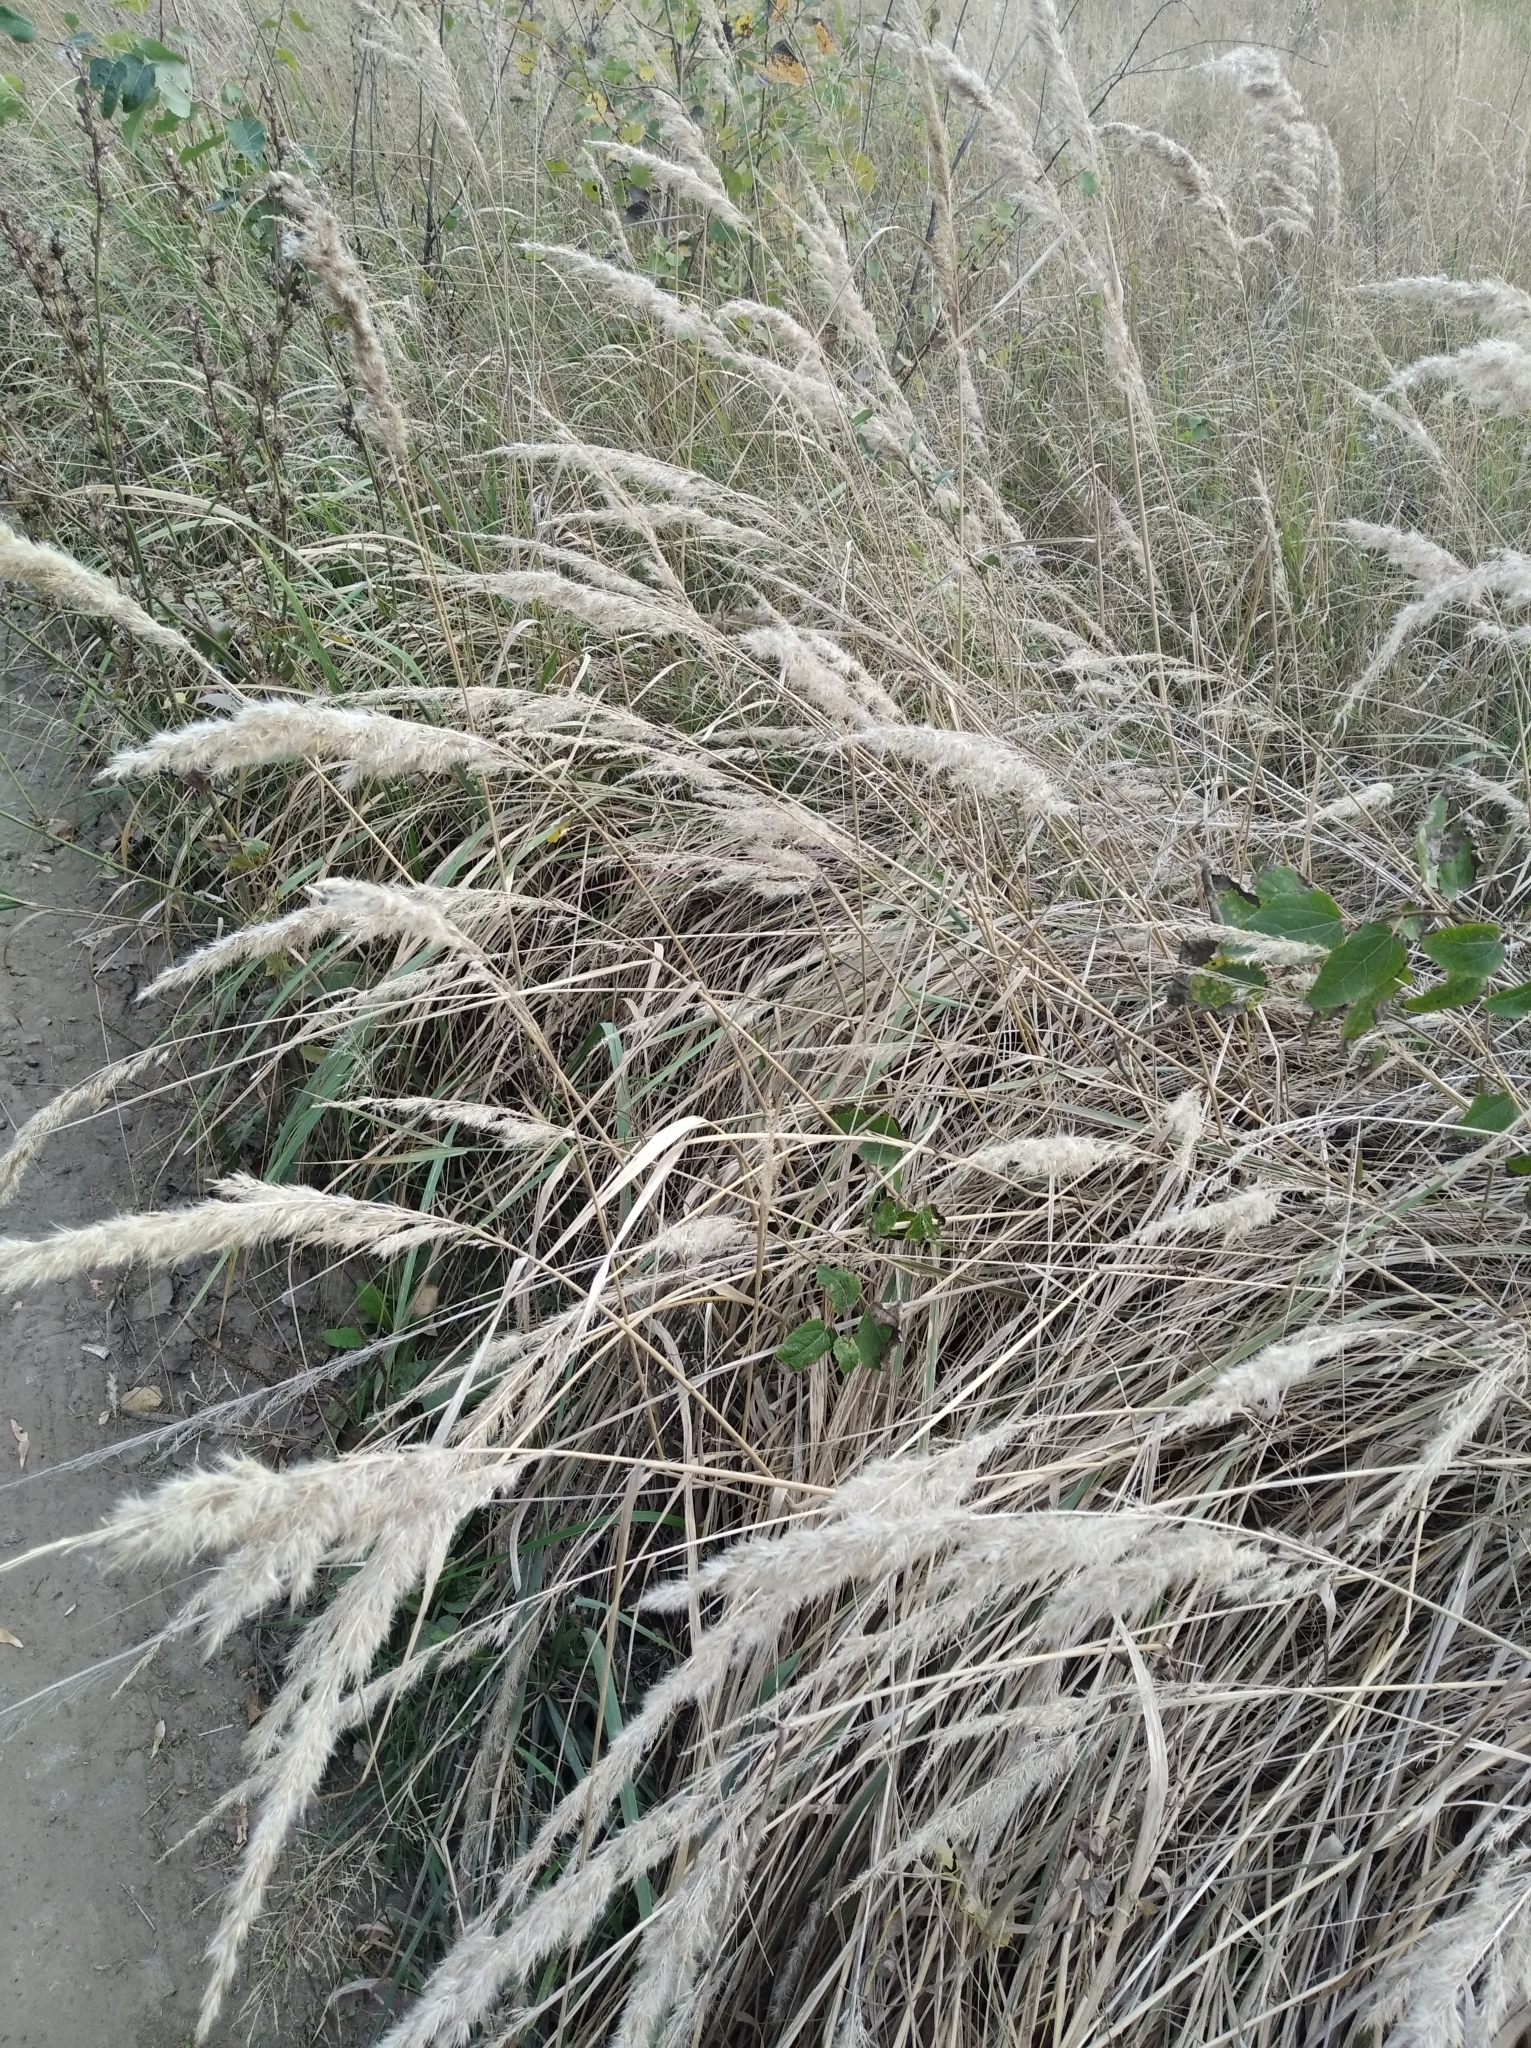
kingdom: Plantae
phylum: Tracheophyta
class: Liliopsida
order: Poales
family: Poaceae
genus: Calamagrostis
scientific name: Calamagrostis epigejos
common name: Wood small-reed
